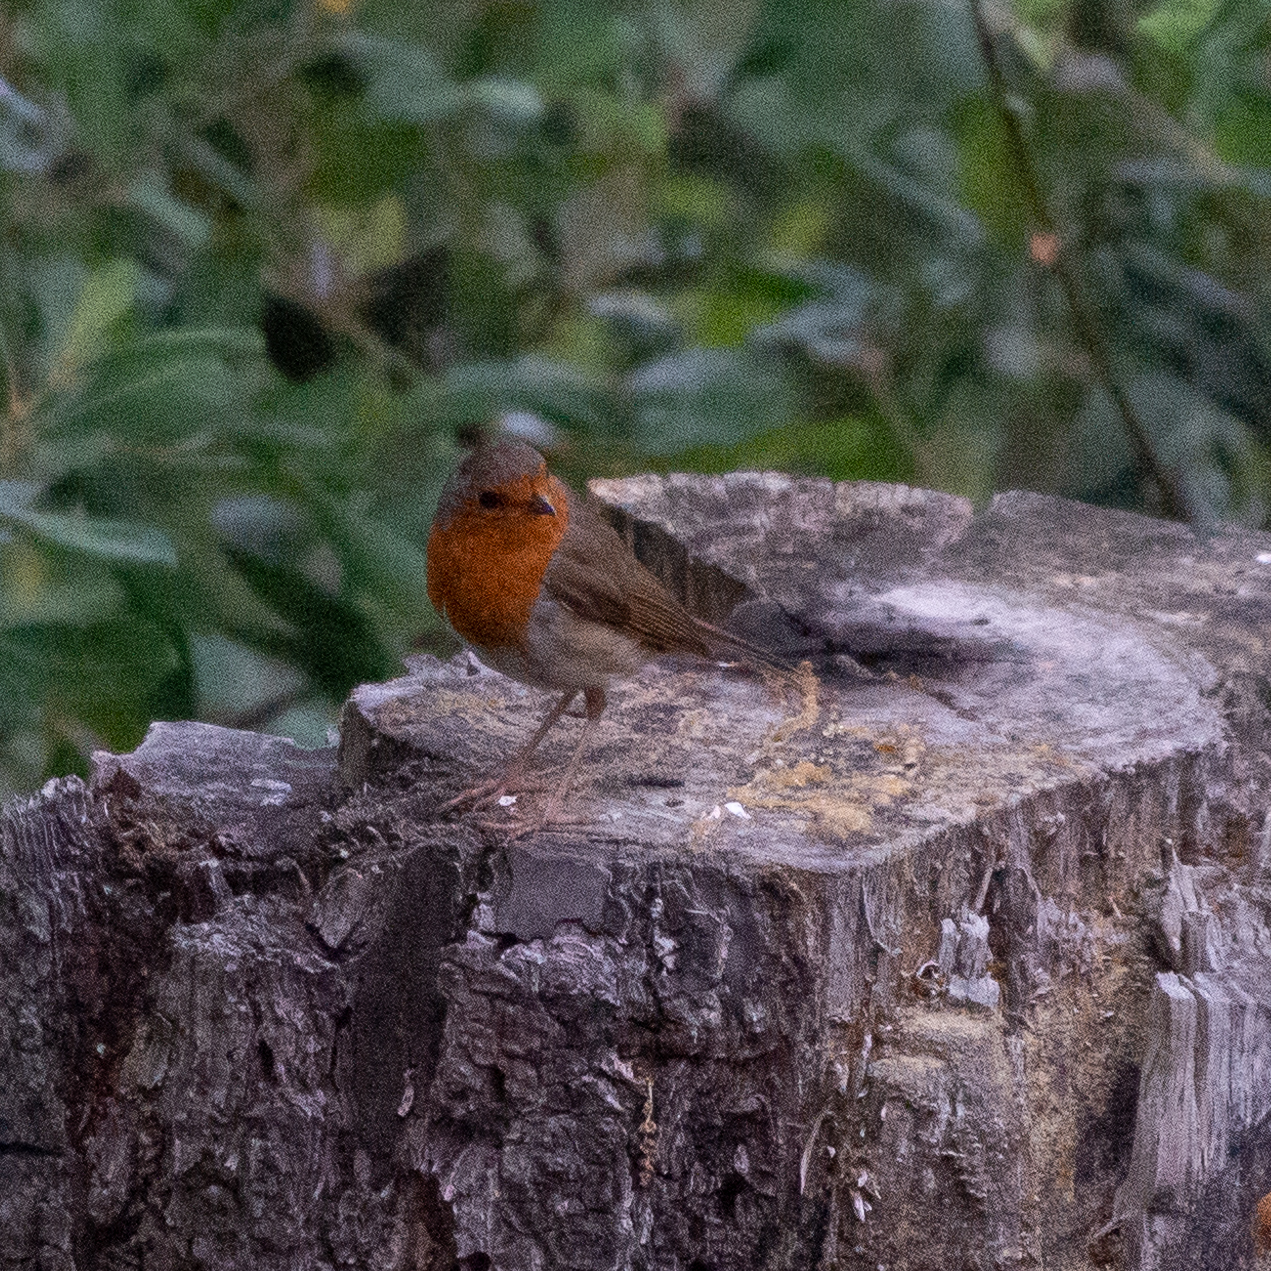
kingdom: Animalia
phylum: Chordata
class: Aves
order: Passeriformes
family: Muscicapidae
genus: Erithacus
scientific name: Erithacus rubecula
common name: European robin
